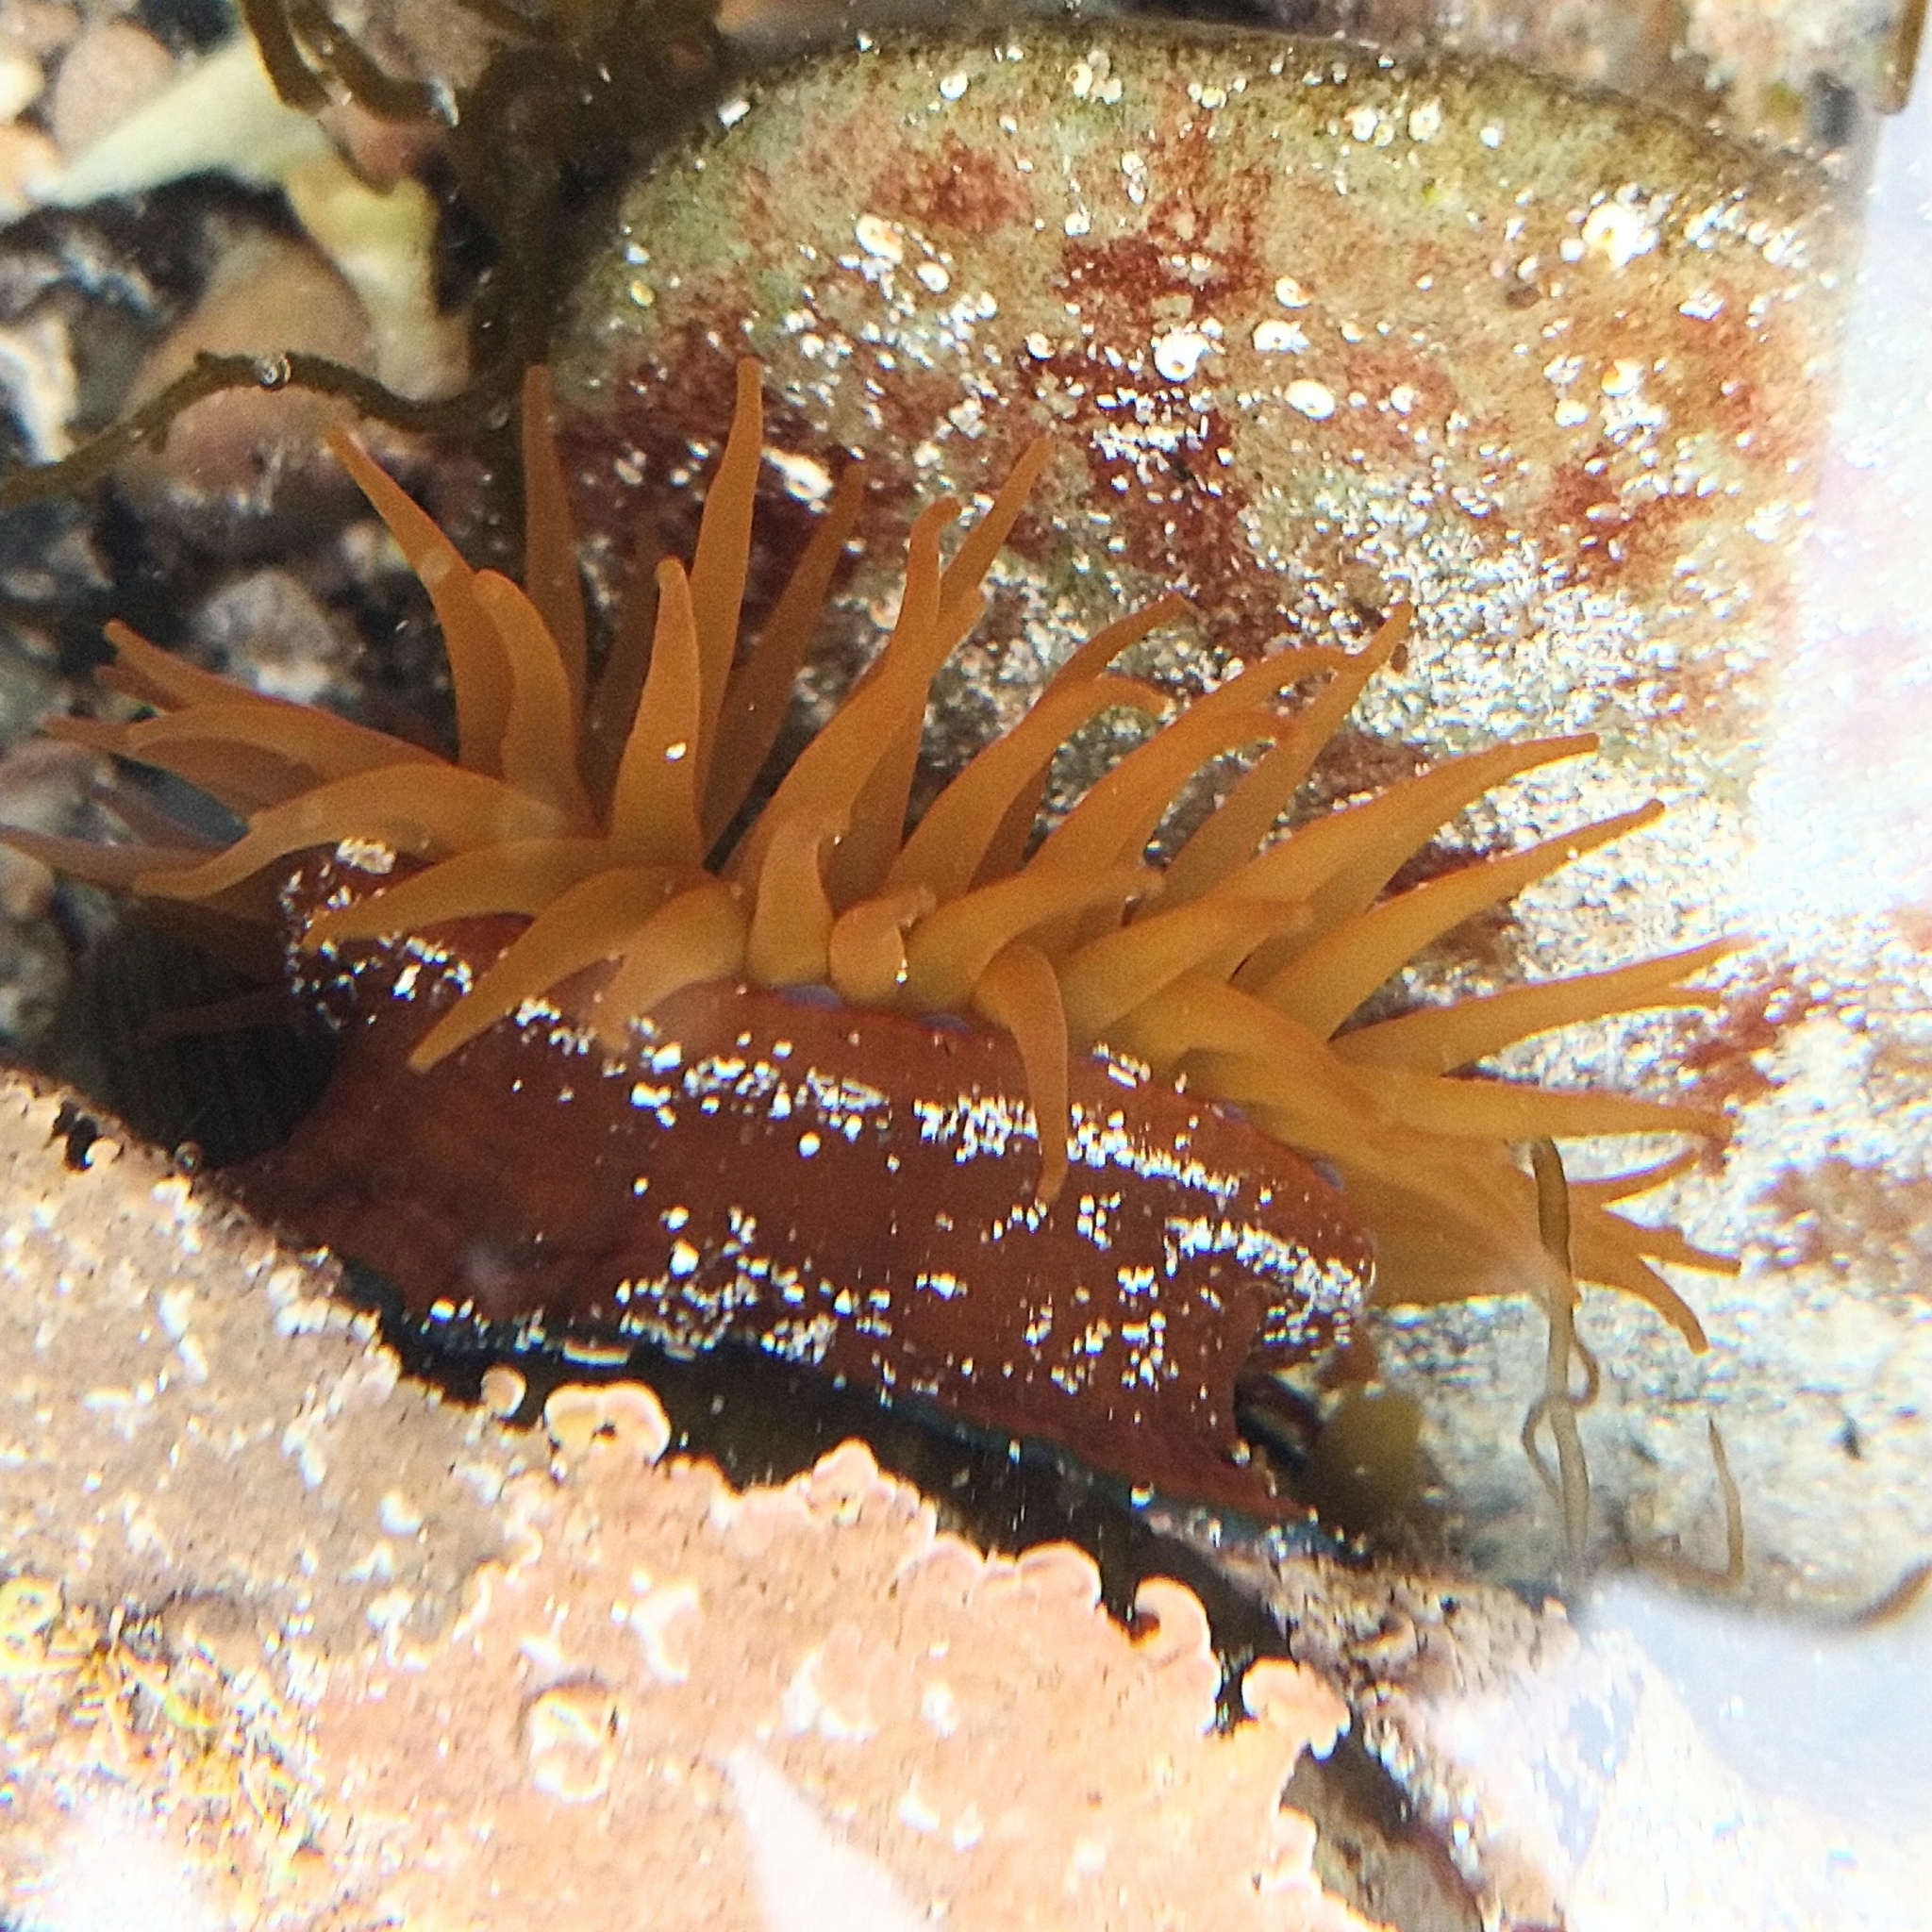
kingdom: Animalia
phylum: Cnidaria
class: Anthozoa
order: Actiniaria
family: Actiniidae
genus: Actinia
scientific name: Actinia equina
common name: Beadlet anemone
